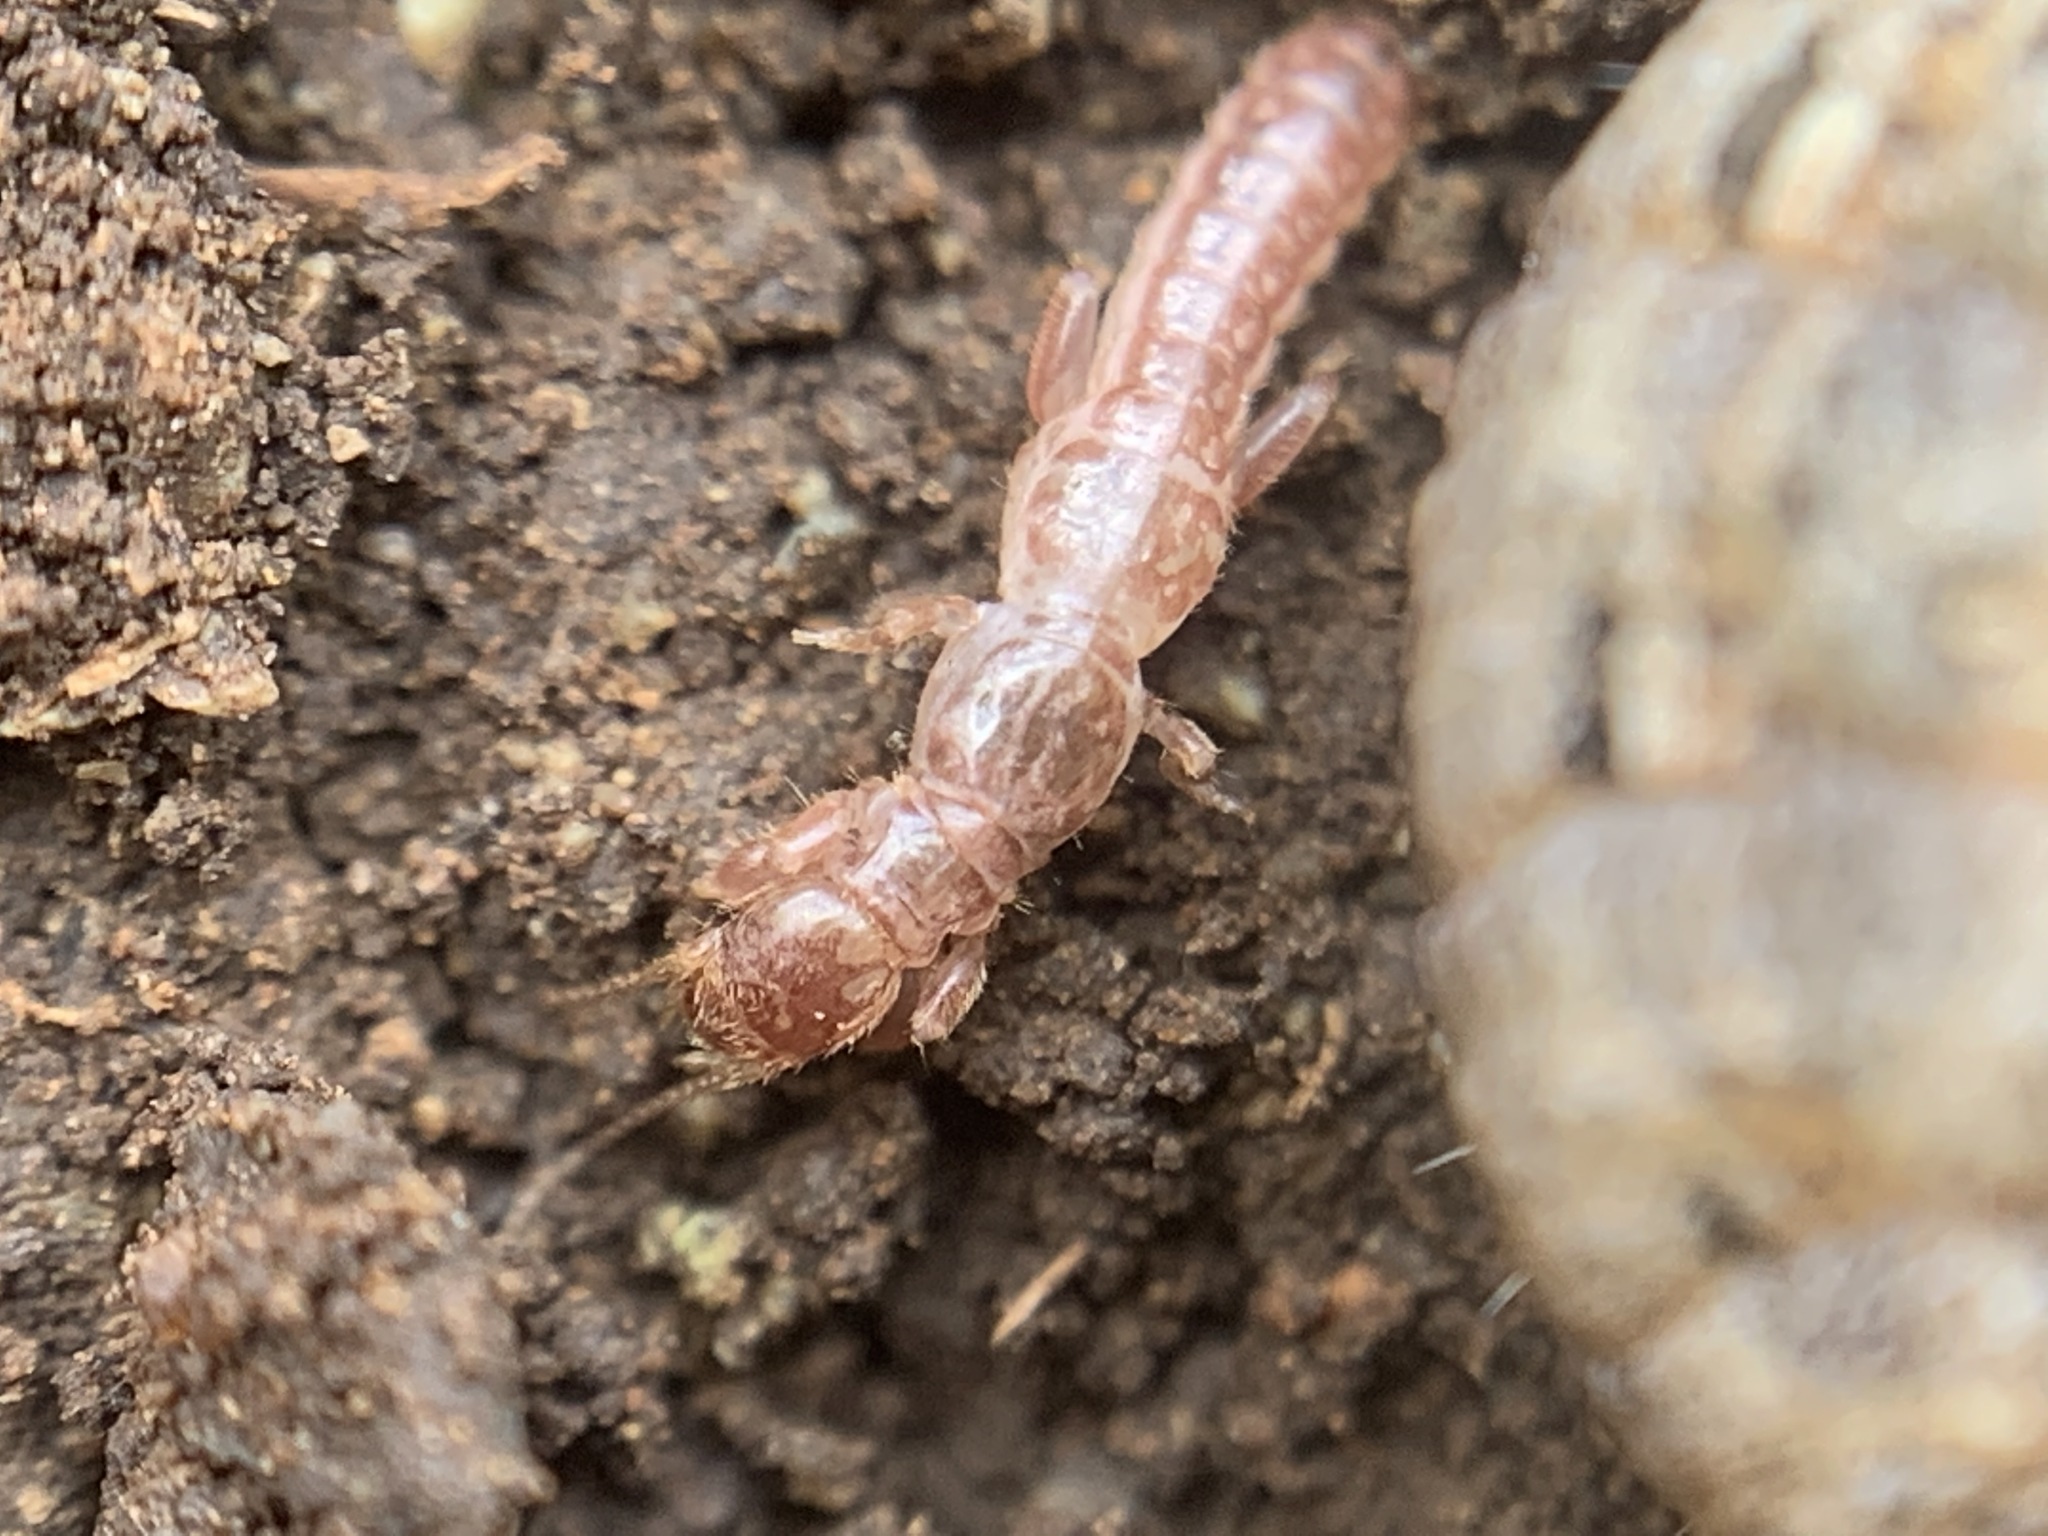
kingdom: Animalia
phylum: Arthropoda
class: Insecta
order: Embioptera
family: Oligotomidae
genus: Haploembia
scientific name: Haploembia solieri
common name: Webspinner
